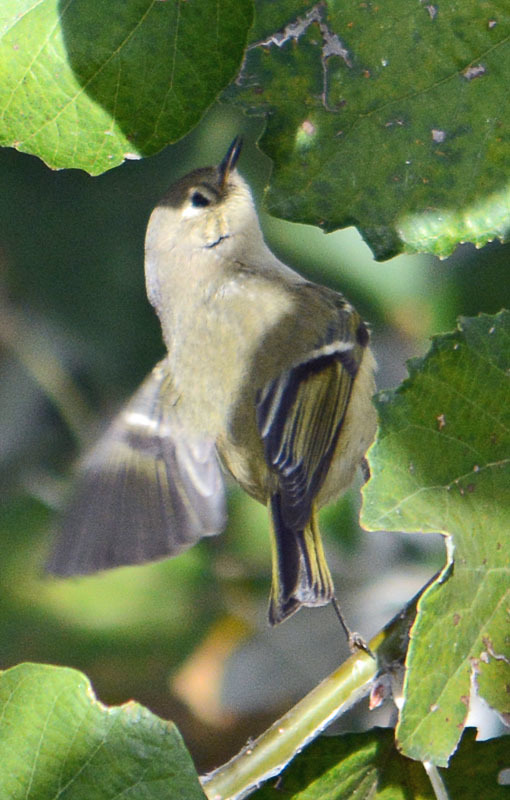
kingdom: Animalia
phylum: Chordata
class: Aves
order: Passeriformes
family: Regulidae
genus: Regulus
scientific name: Regulus calendula
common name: Ruby-crowned kinglet
